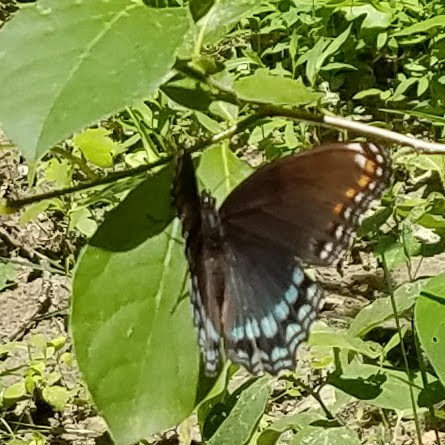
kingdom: Animalia
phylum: Arthropoda
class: Insecta
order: Lepidoptera
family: Nymphalidae
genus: Limenitis
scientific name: Limenitis astyanax
